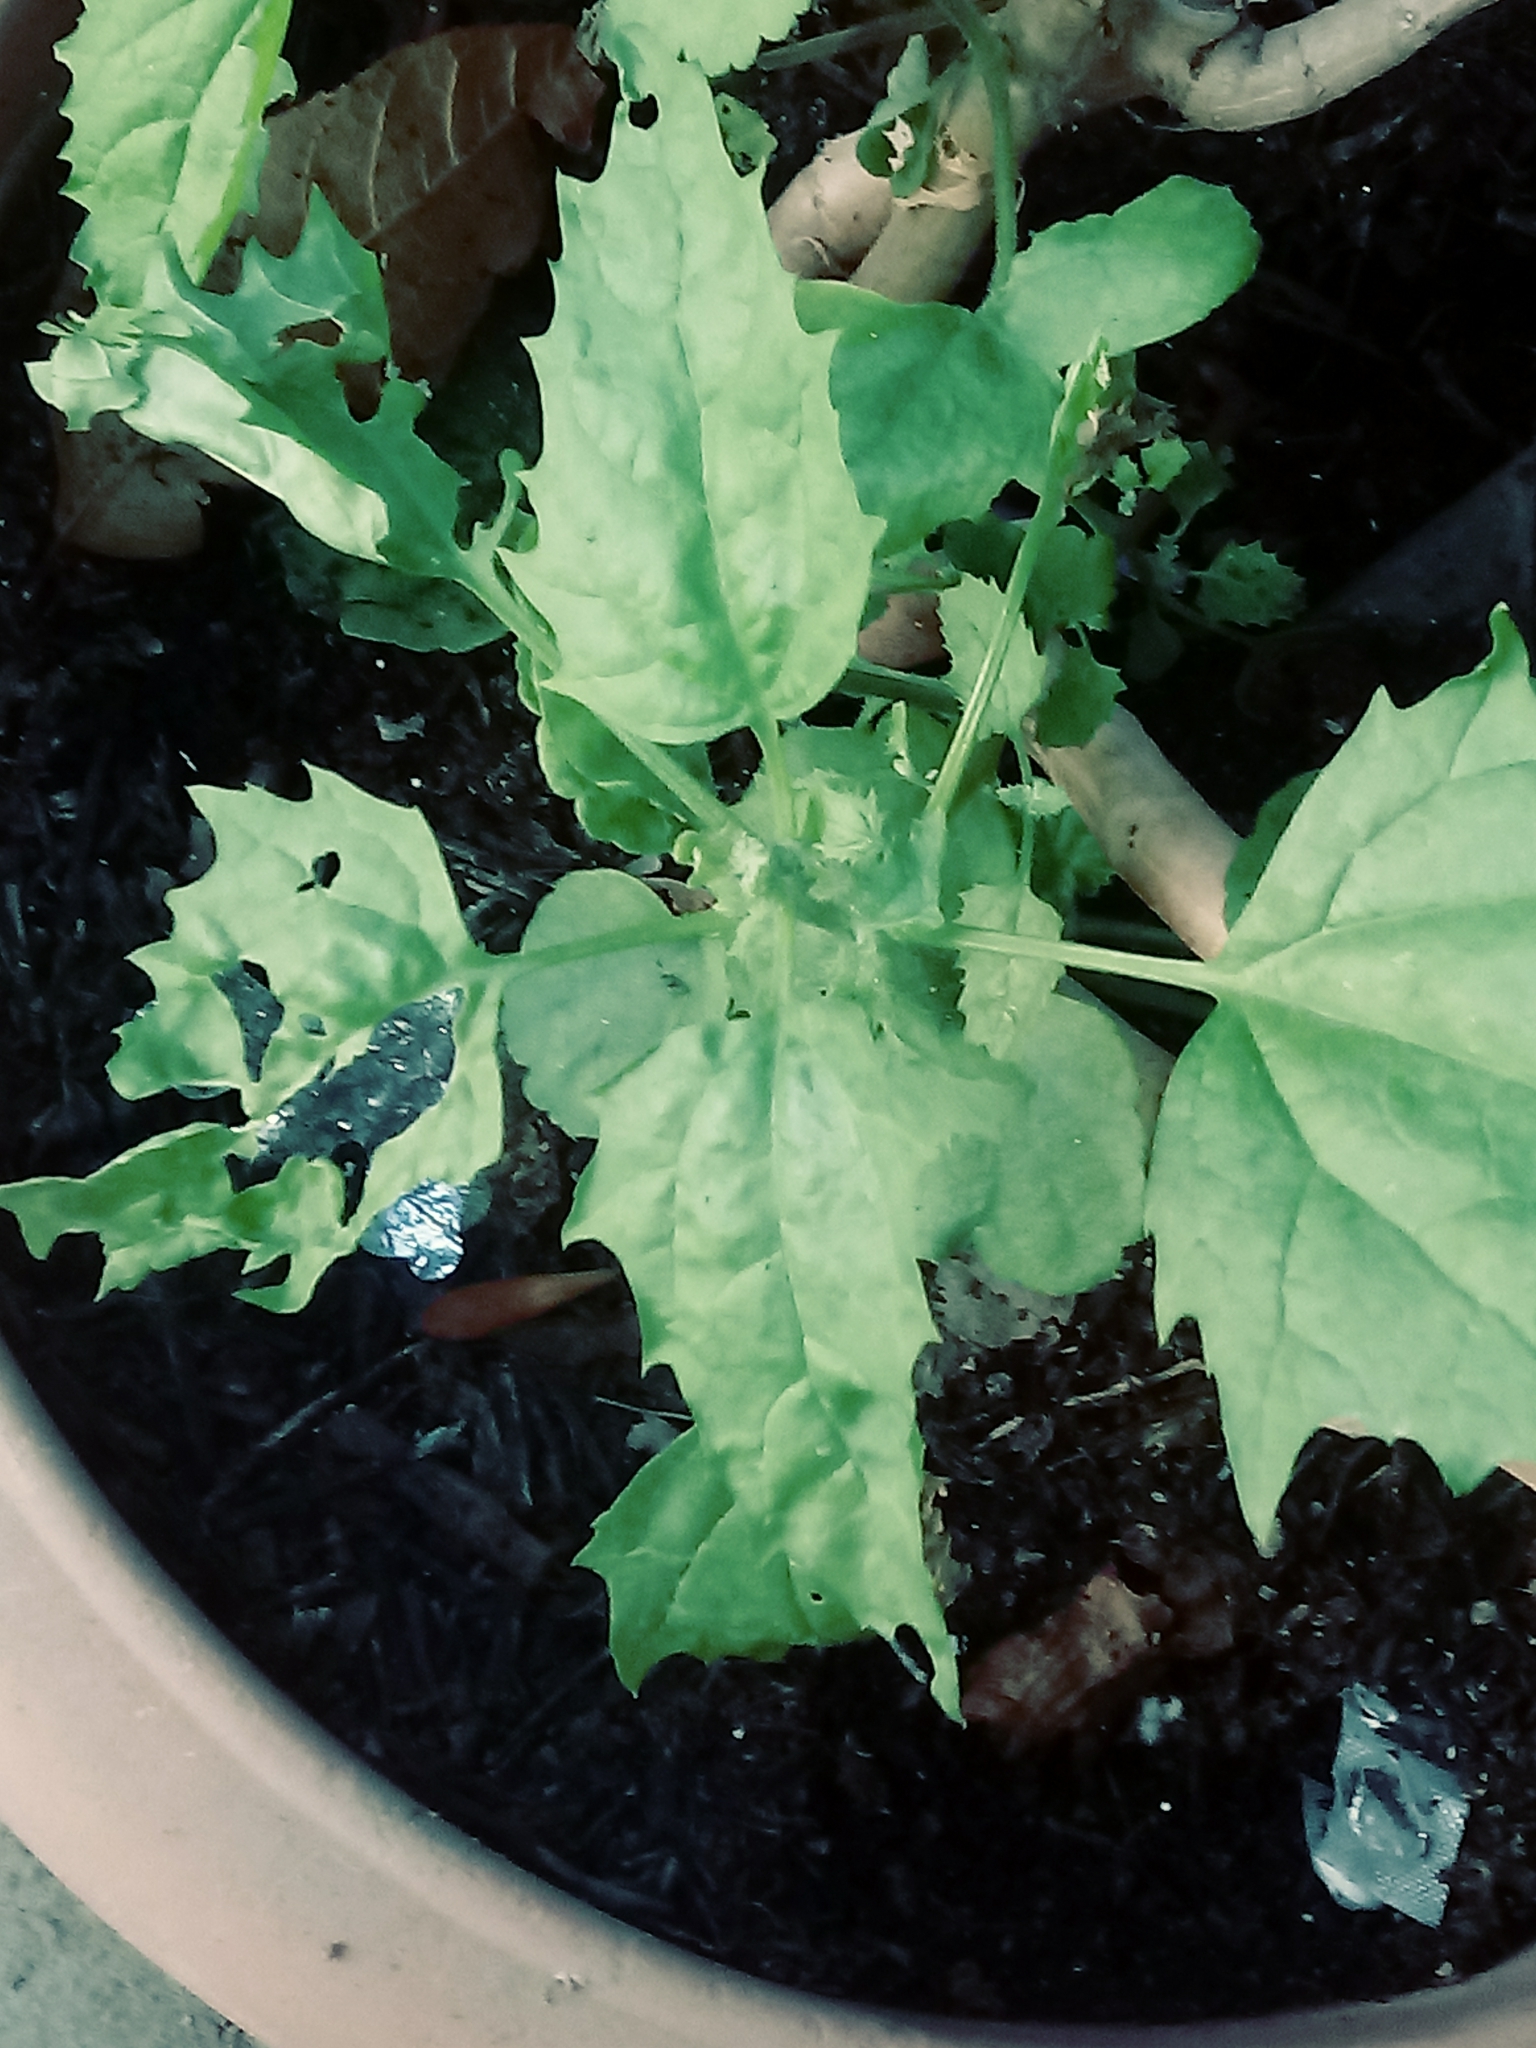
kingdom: Plantae
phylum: Tracheophyta
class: Magnoliopsida
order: Caryophyllales
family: Amaranthaceae
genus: Chenopodiastrum
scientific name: Chenopodiastrum murale
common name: Sowbane
